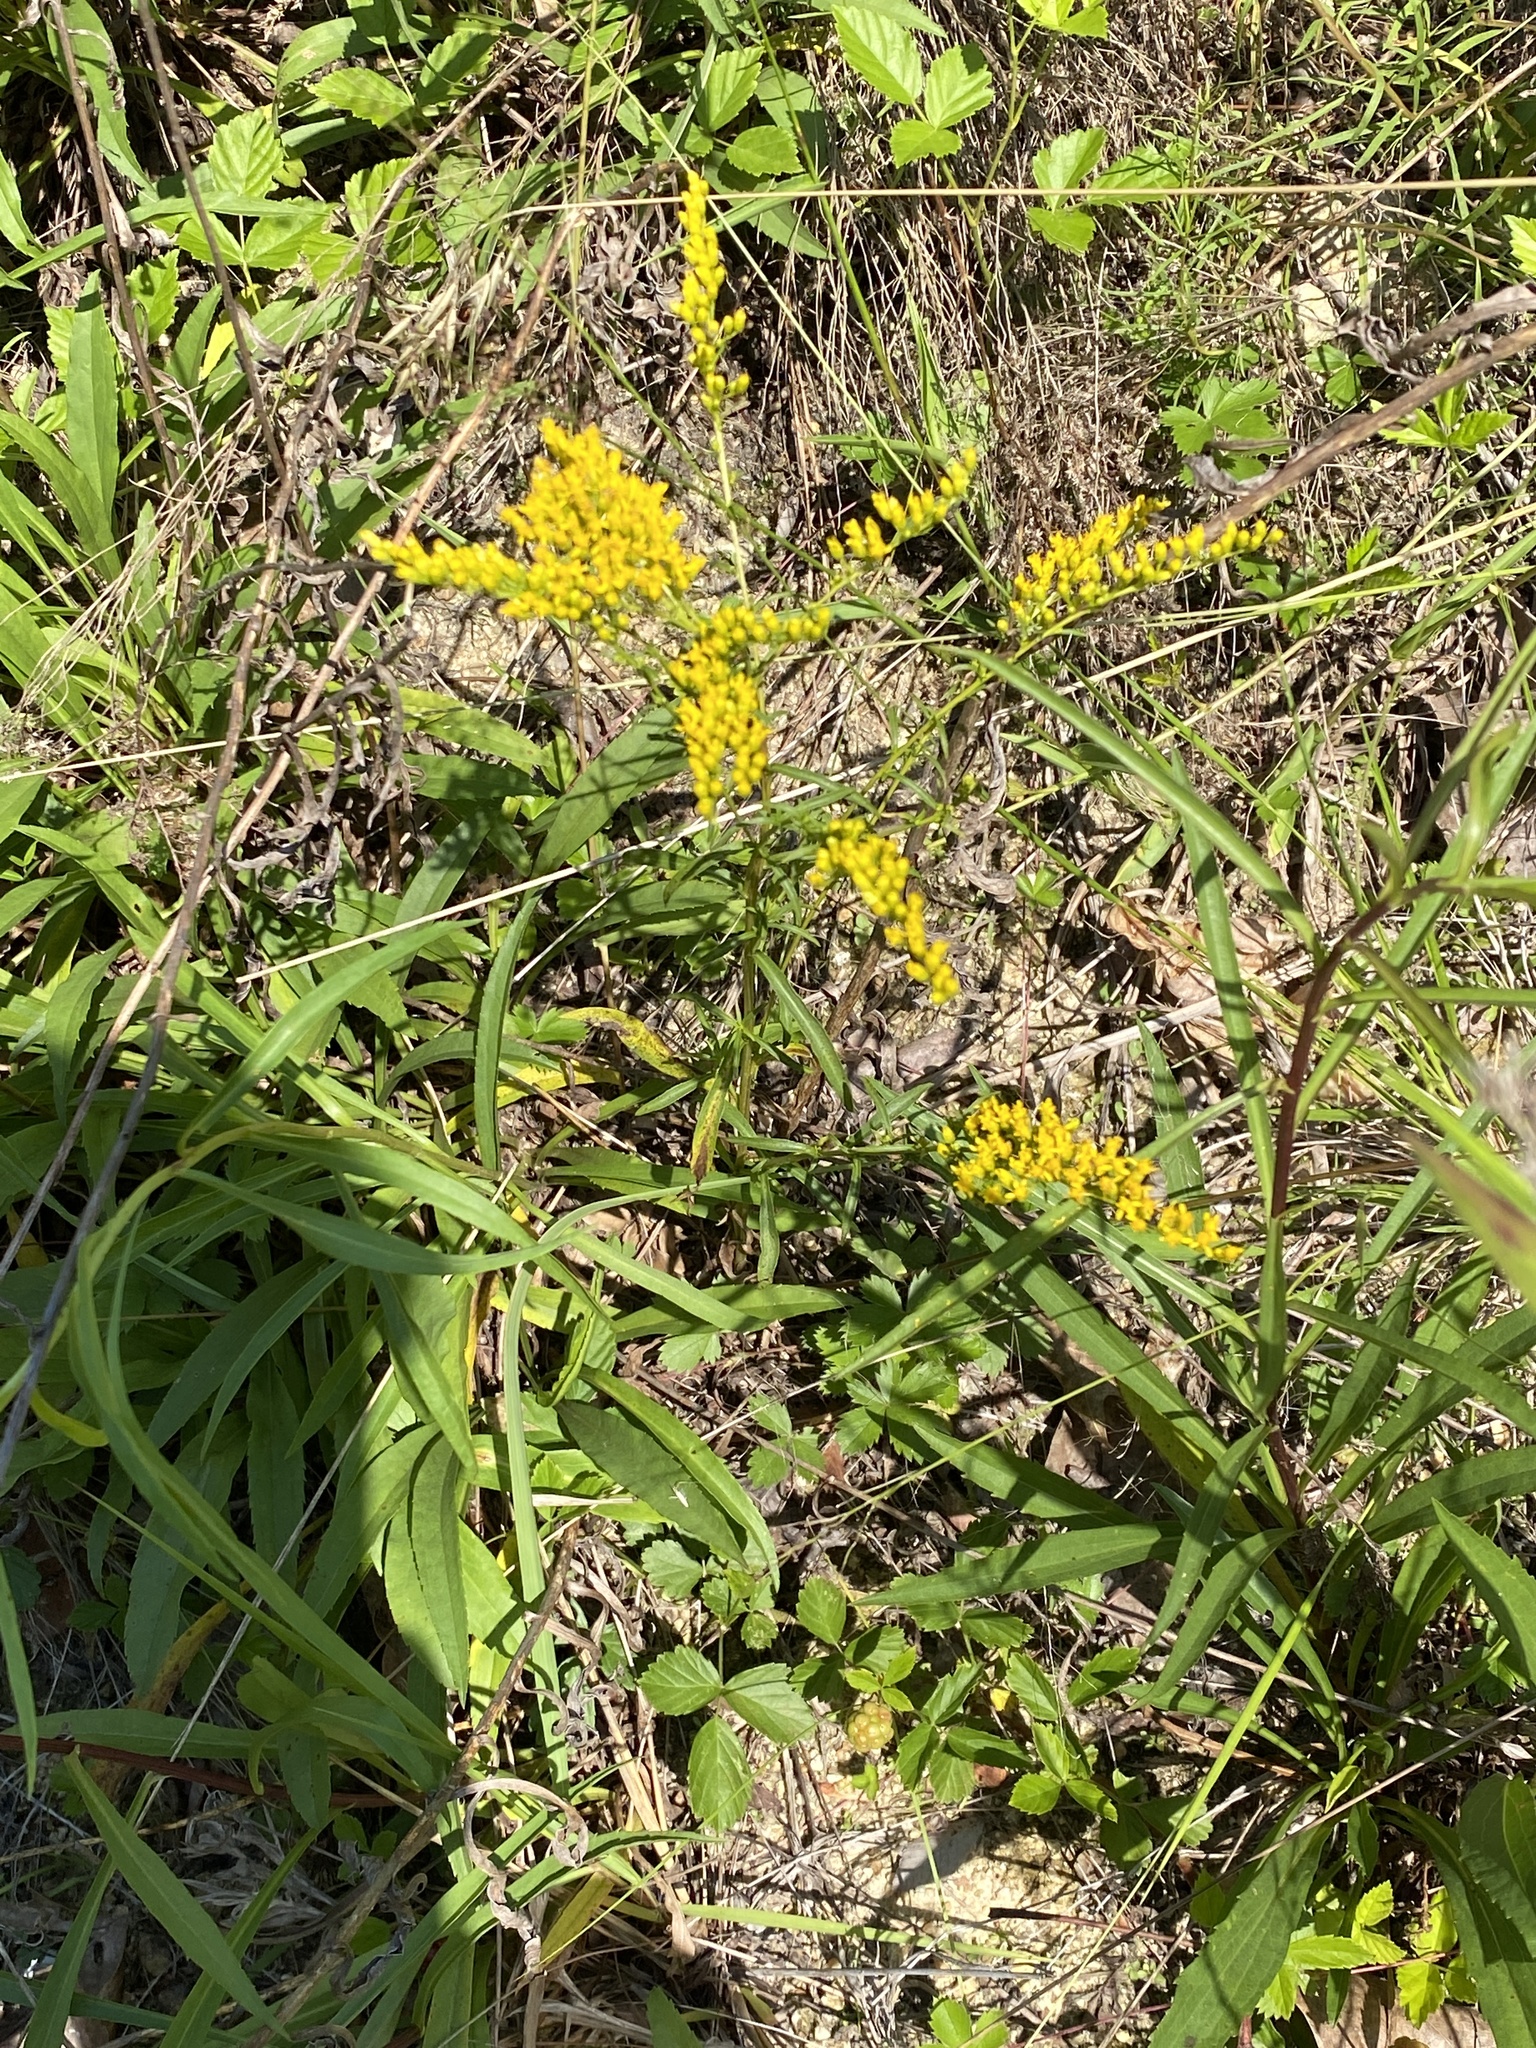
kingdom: Plantae
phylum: Tracheophyta
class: Magnoliopsida
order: Asterales
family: Asteraceae
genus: Solidago
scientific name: Solidago pinetorum
